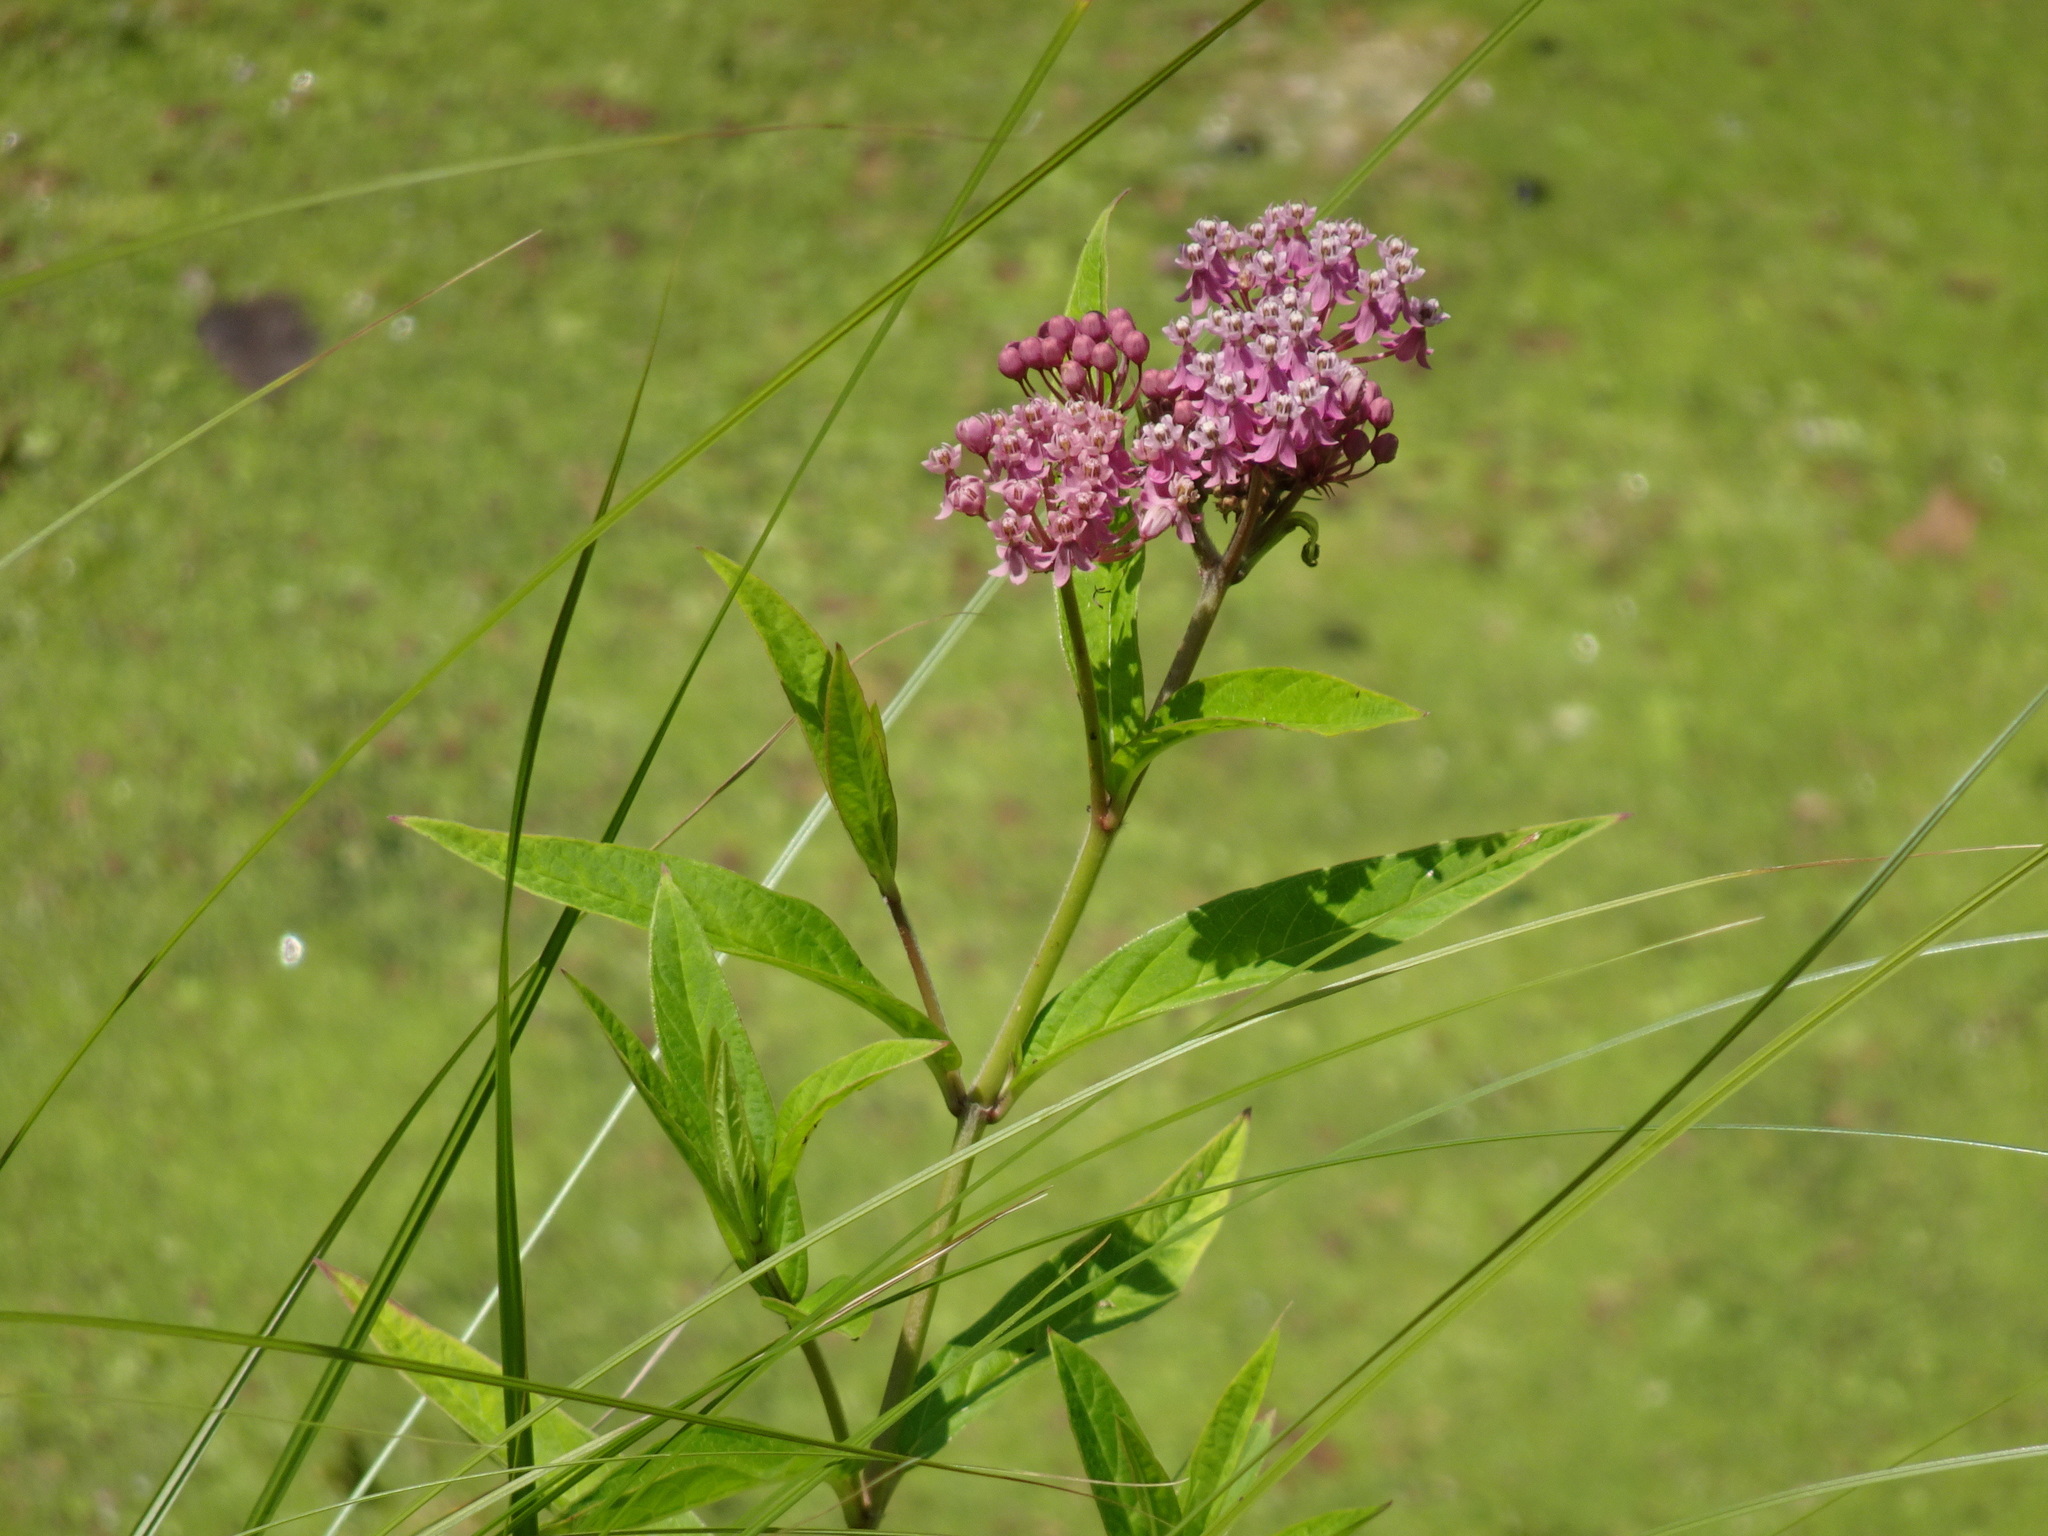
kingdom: Plantae
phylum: Tracheophyta
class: Magnoliopsida
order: Gentianales
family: Apocynaceae
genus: Asclepias
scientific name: Asclepias incarnata
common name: Swamp milkweed
